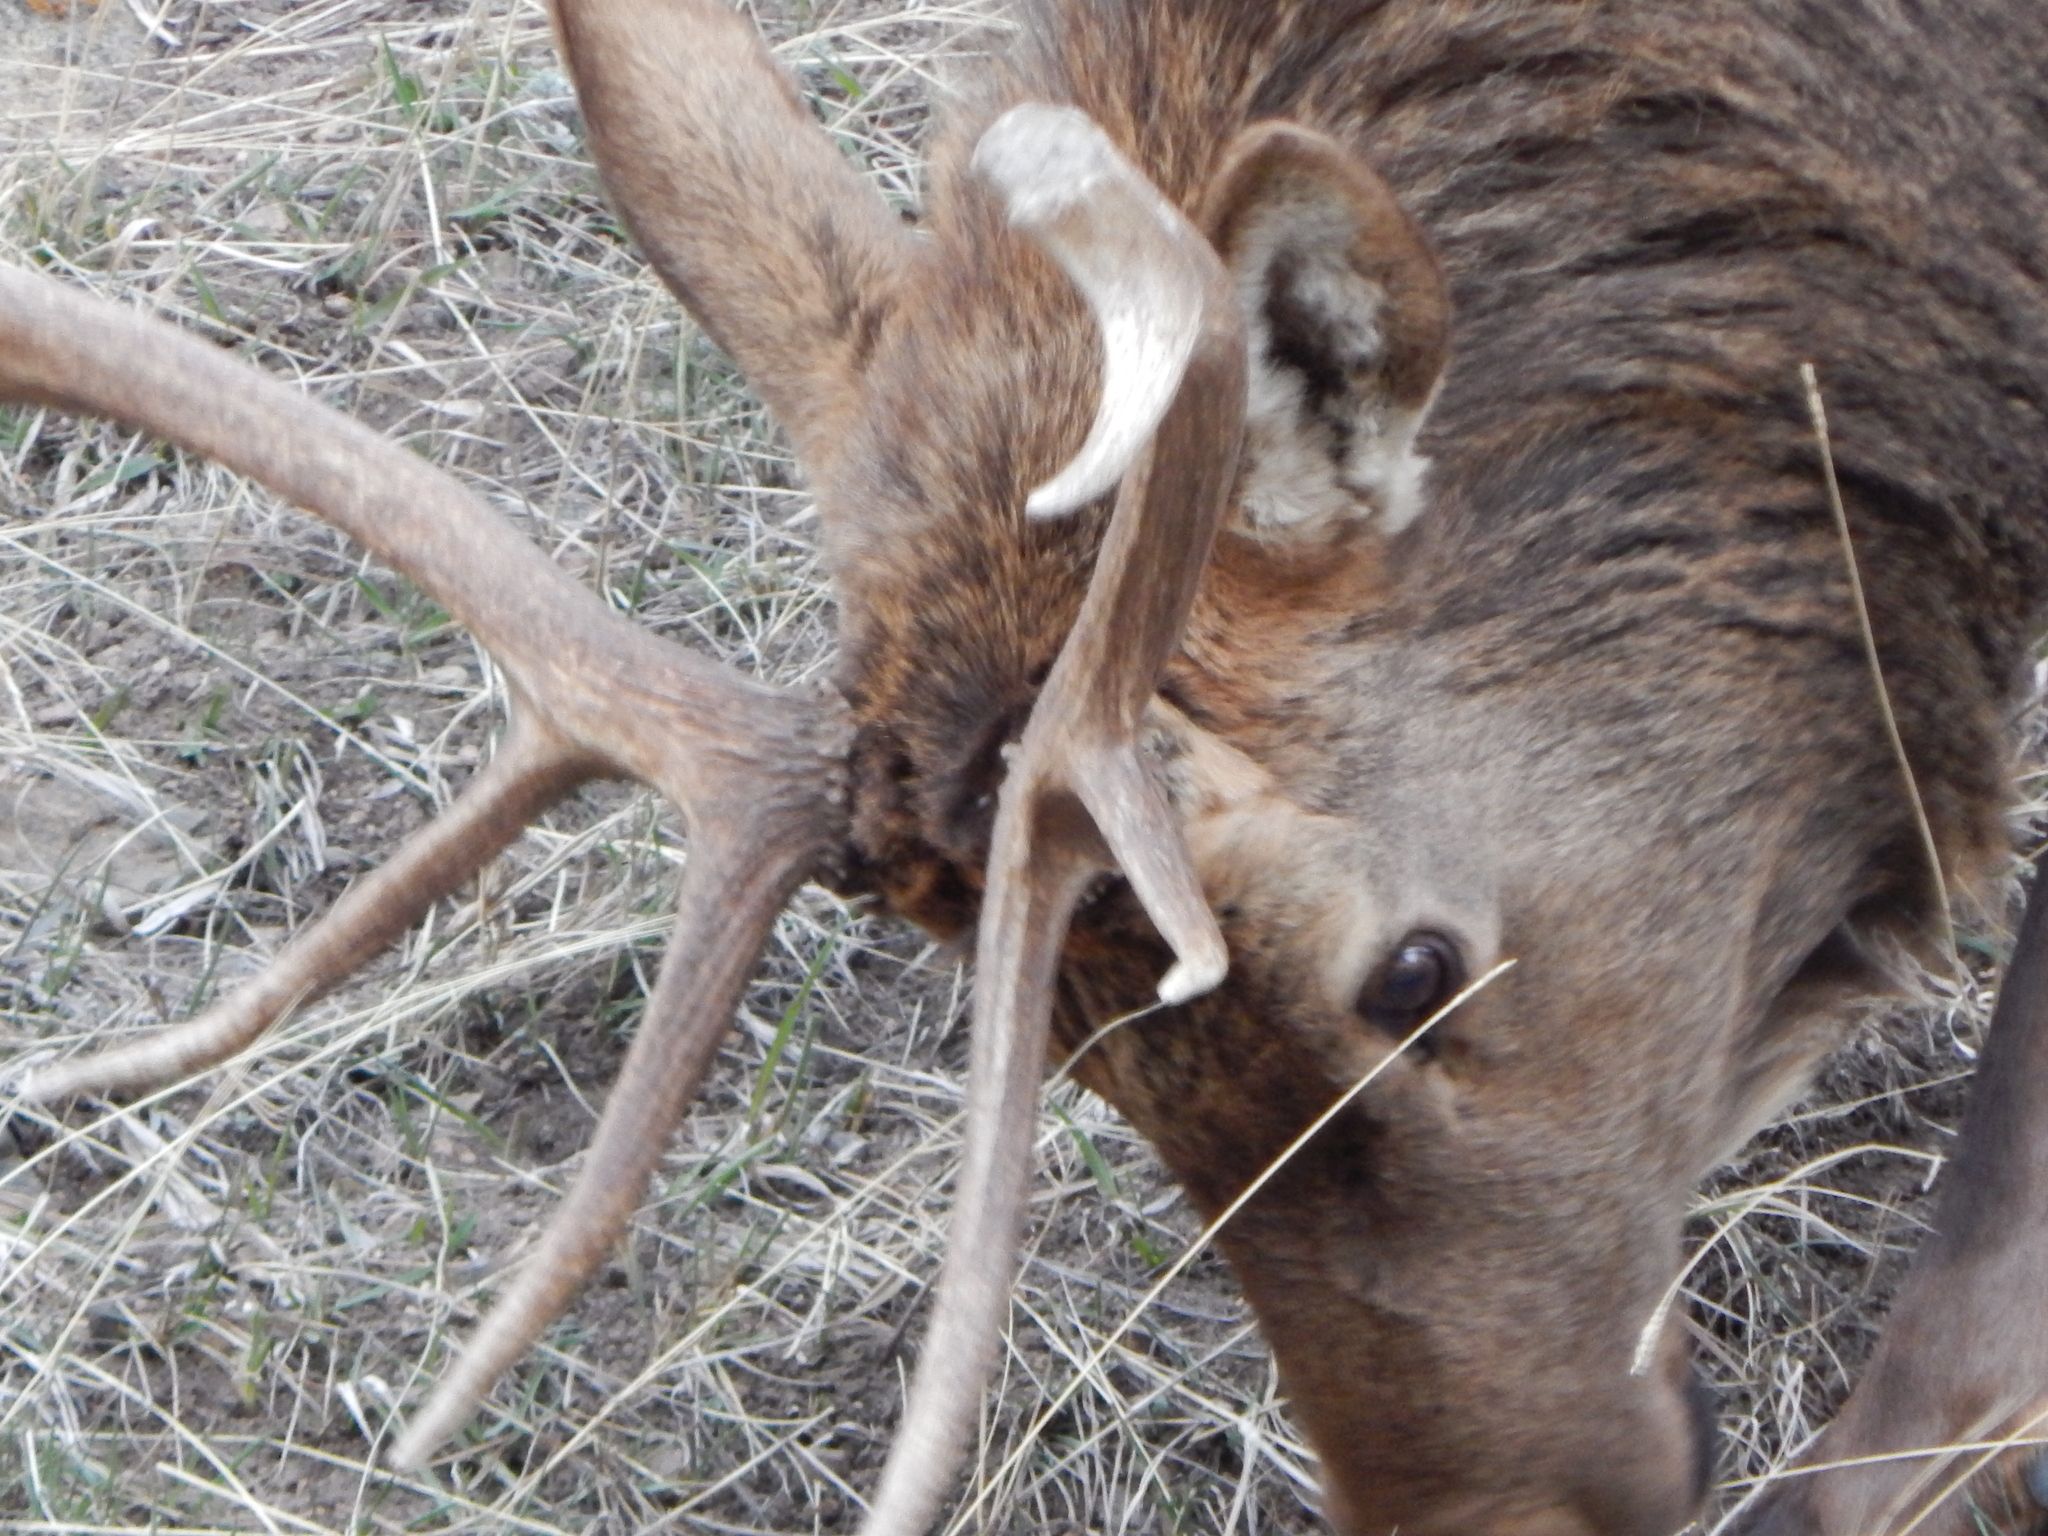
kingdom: Animalia
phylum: Chordata
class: Mammalia
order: Artiodactyla
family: Cervidae
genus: Cervus
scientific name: Cervus elaphus
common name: Red deer
